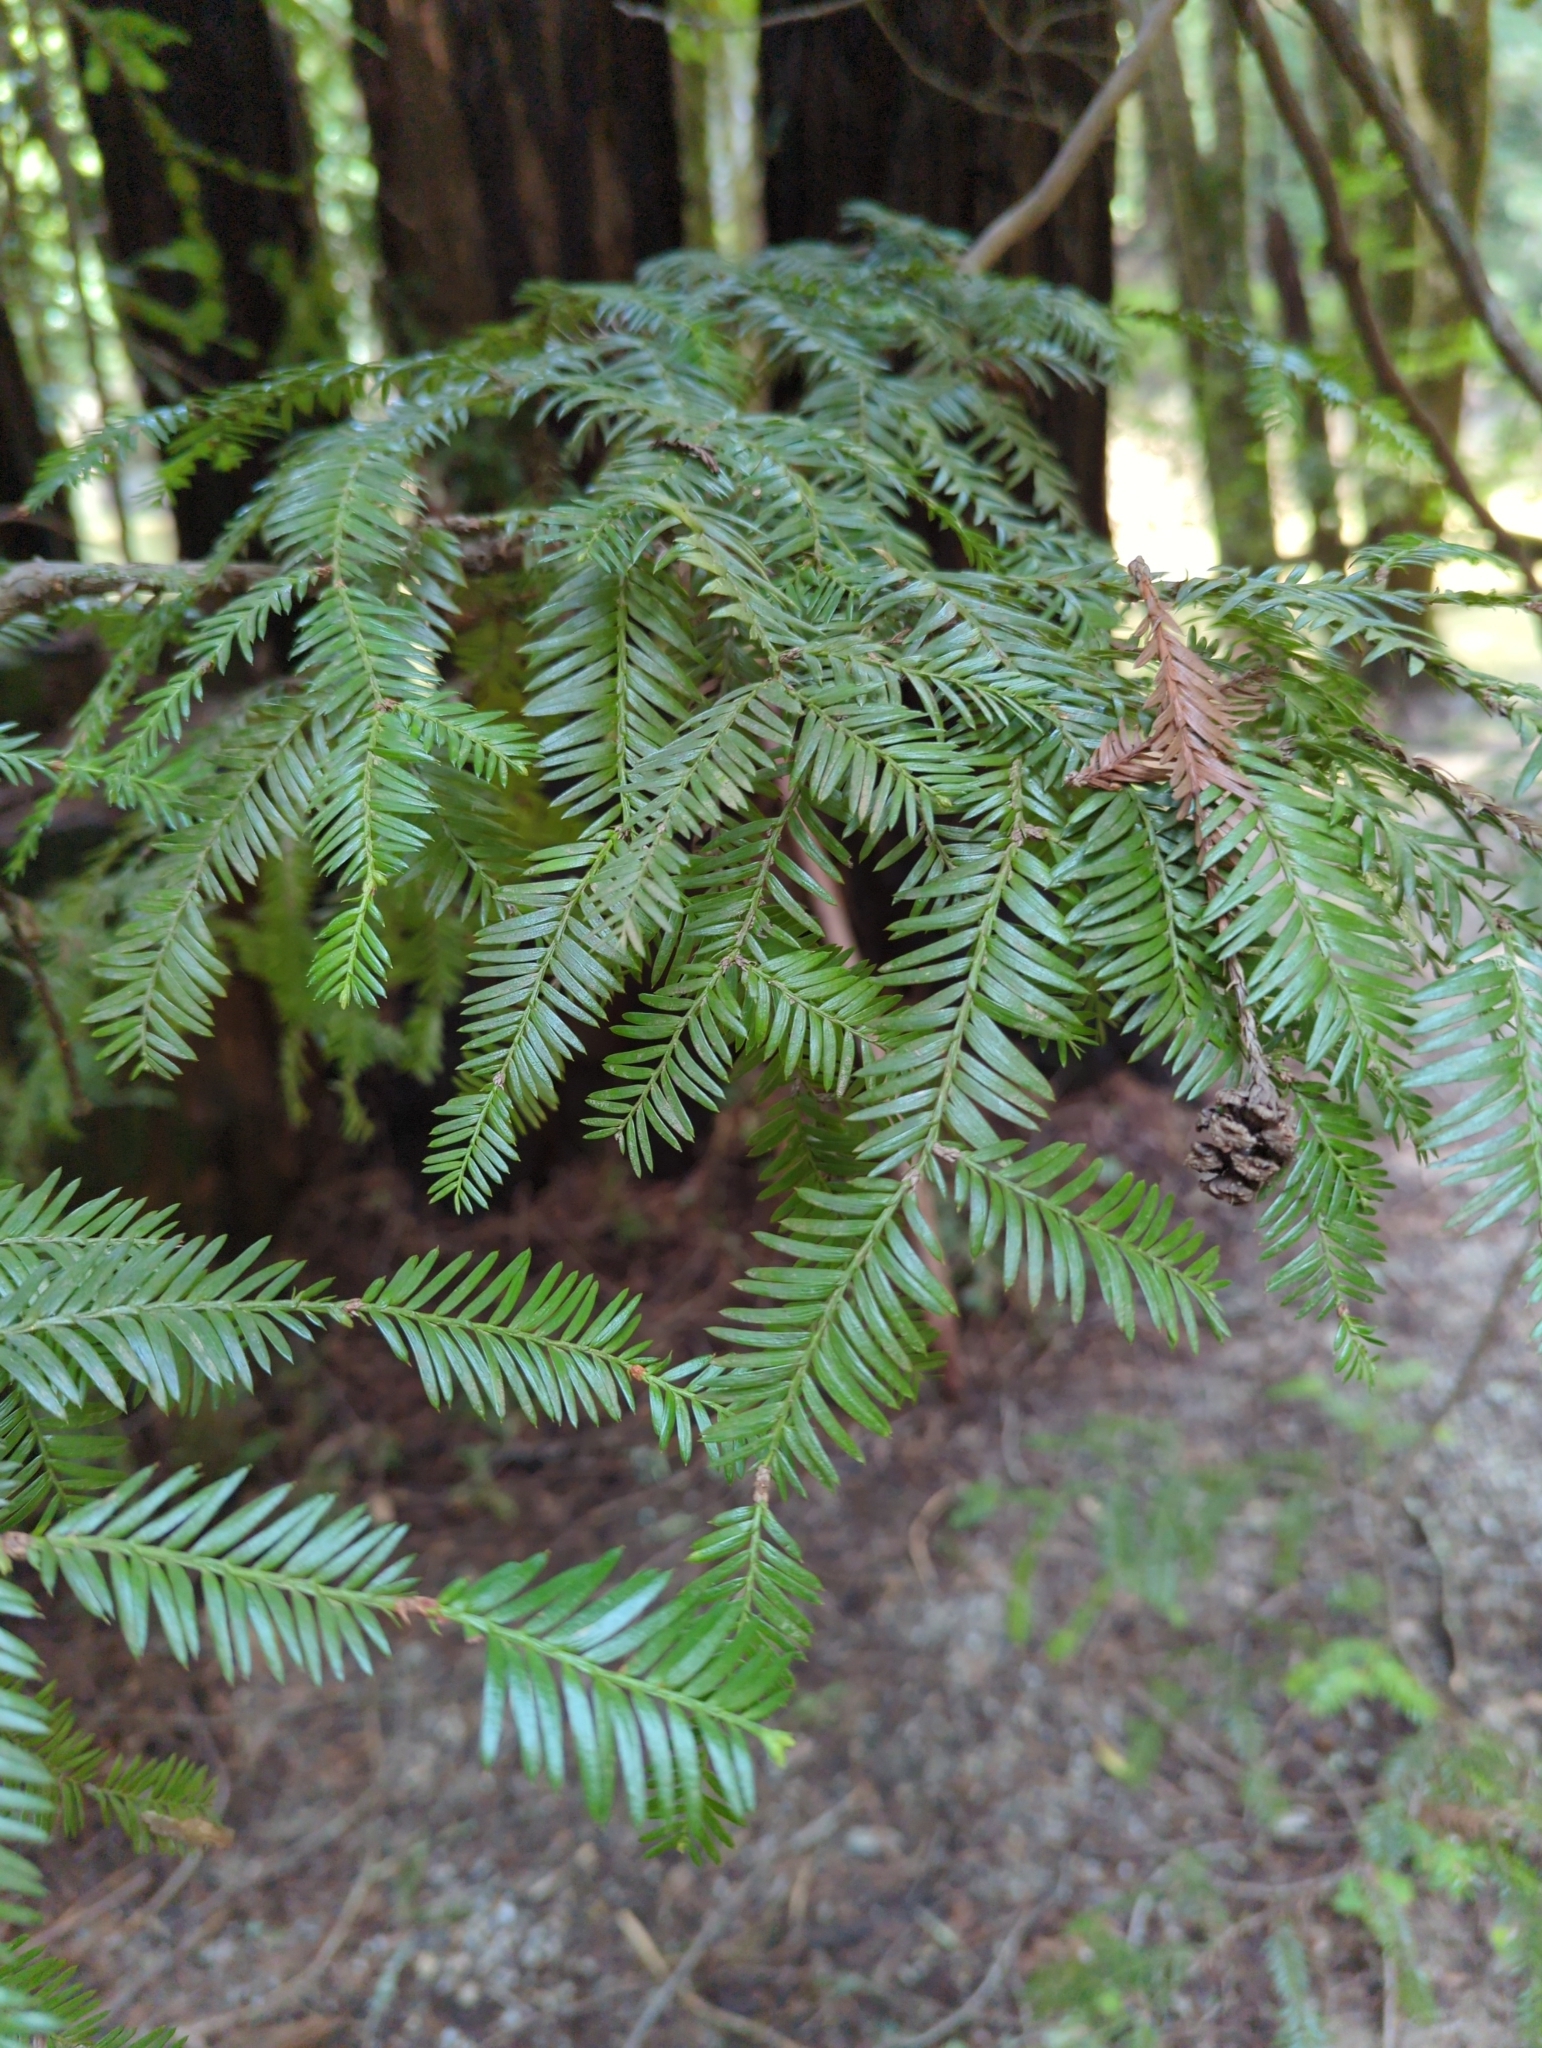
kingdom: Plantae
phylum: Tracheophyta
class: Pinopsida
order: Pinales
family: Cupressaceae
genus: Sequoia
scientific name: Sequoia sempervirens
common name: Coast redwood
